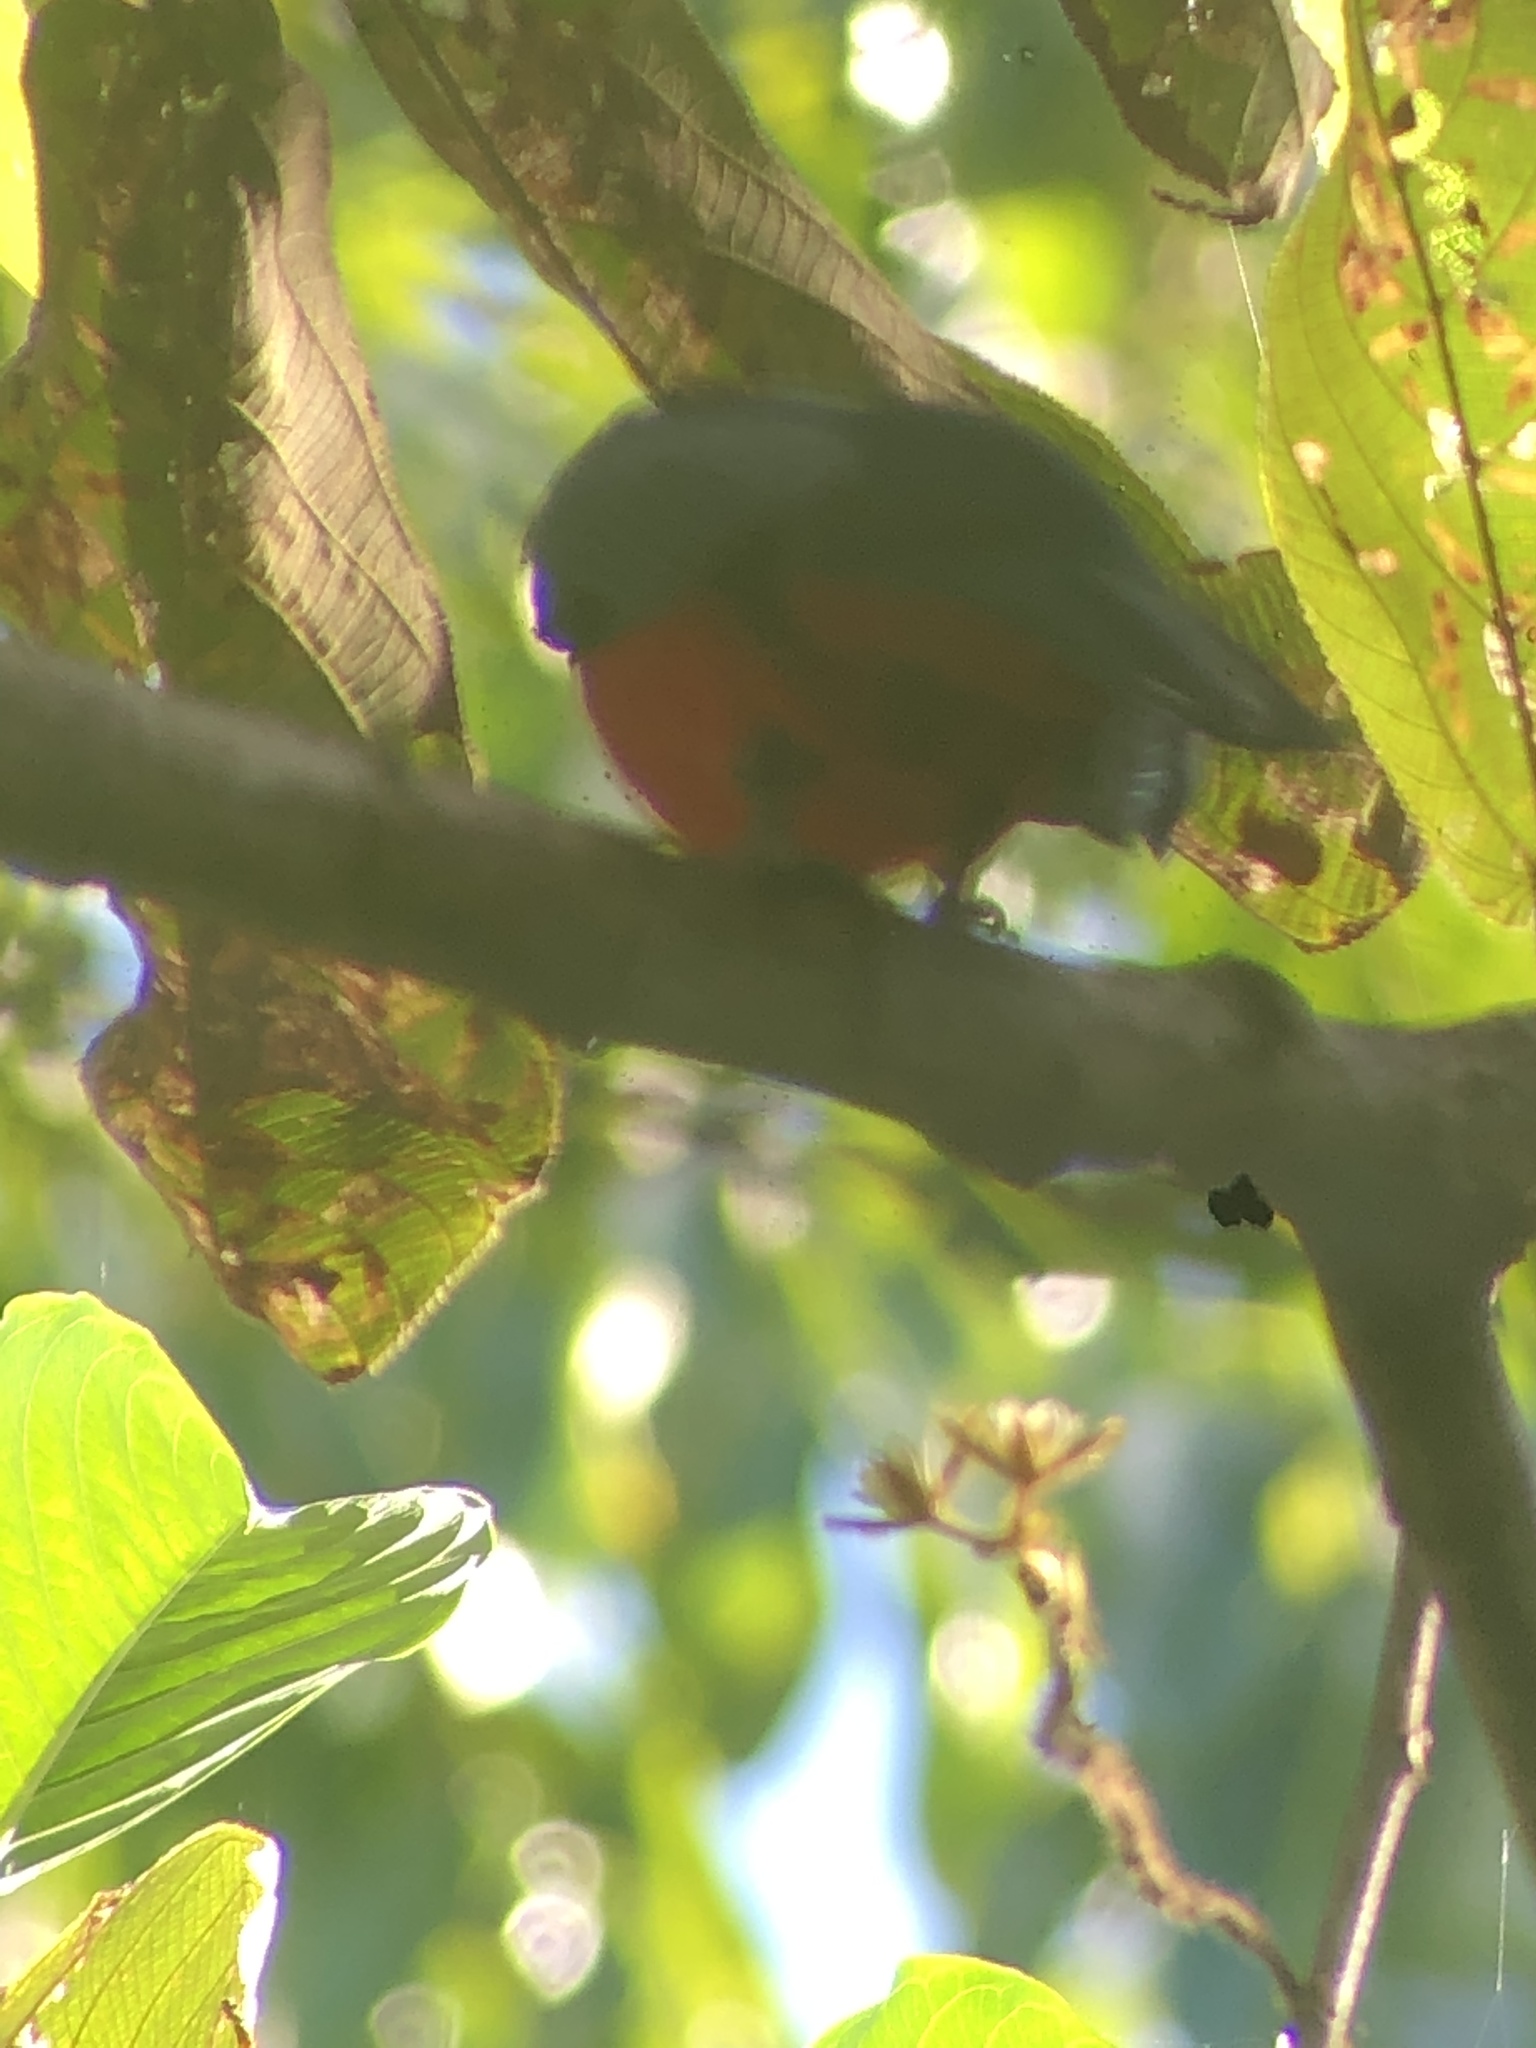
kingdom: Animalia
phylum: Chordata
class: Aves
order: Trogoniformes
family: Trogonidae
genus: Trogon
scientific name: Trogon massena
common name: Slaty-tailed trogon
